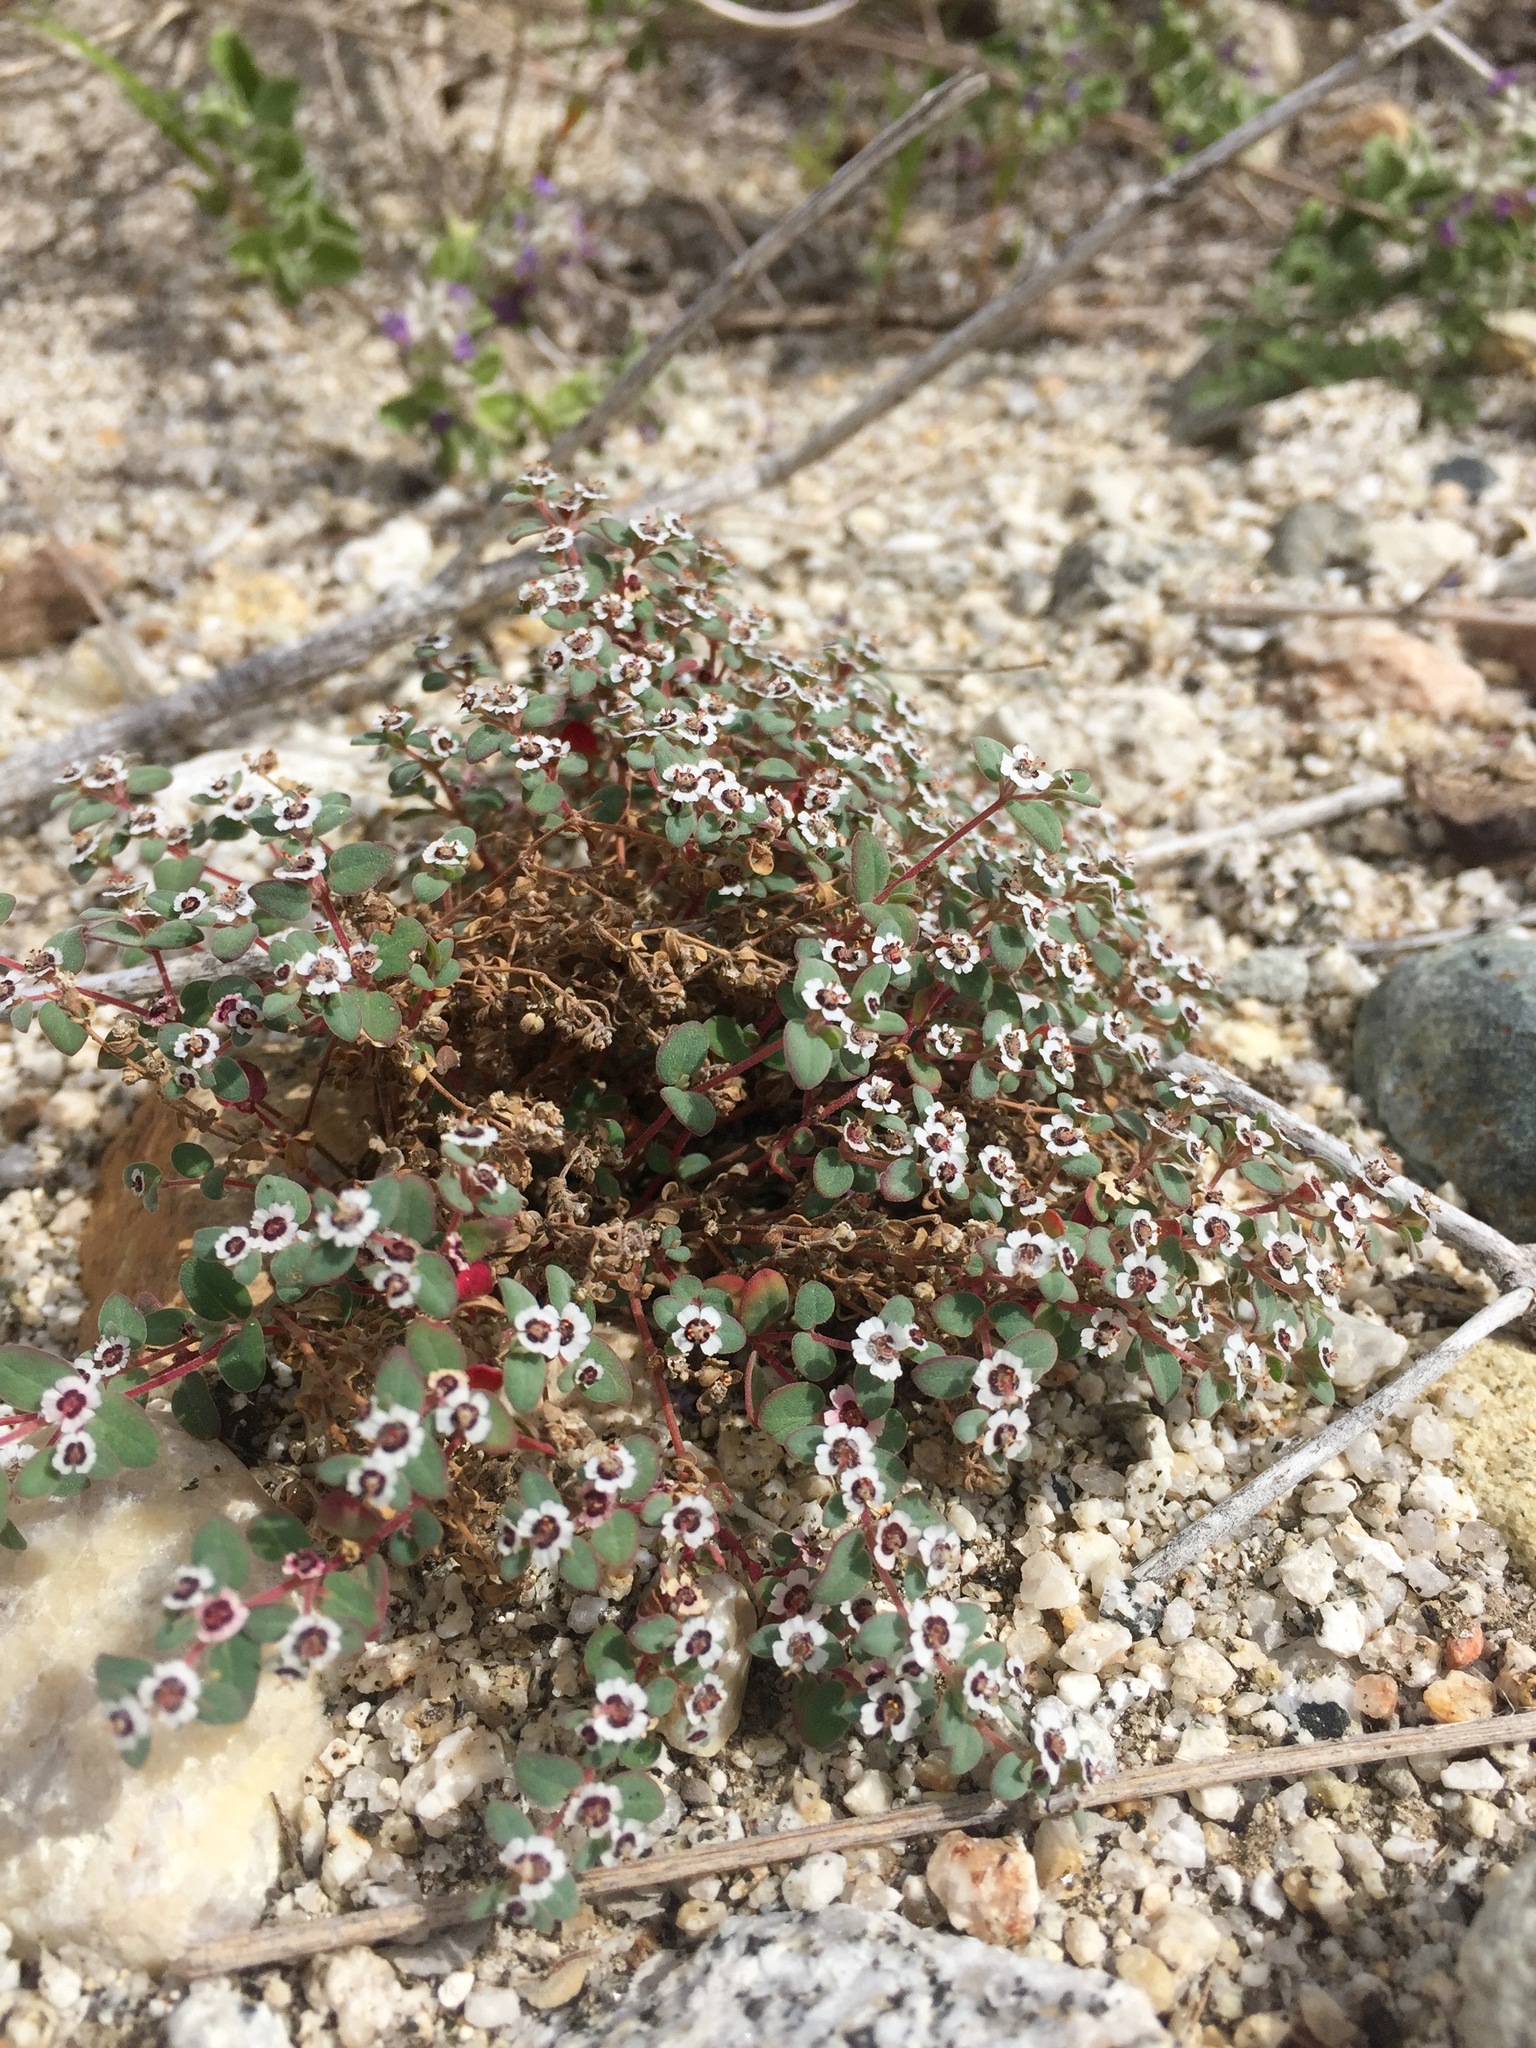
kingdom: Plantae
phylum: Tracheophyta
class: Magnoliopsida
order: Malpighiales
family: Euphorbiaceae
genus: Euphorbia
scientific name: Euphorbia melanadenia
